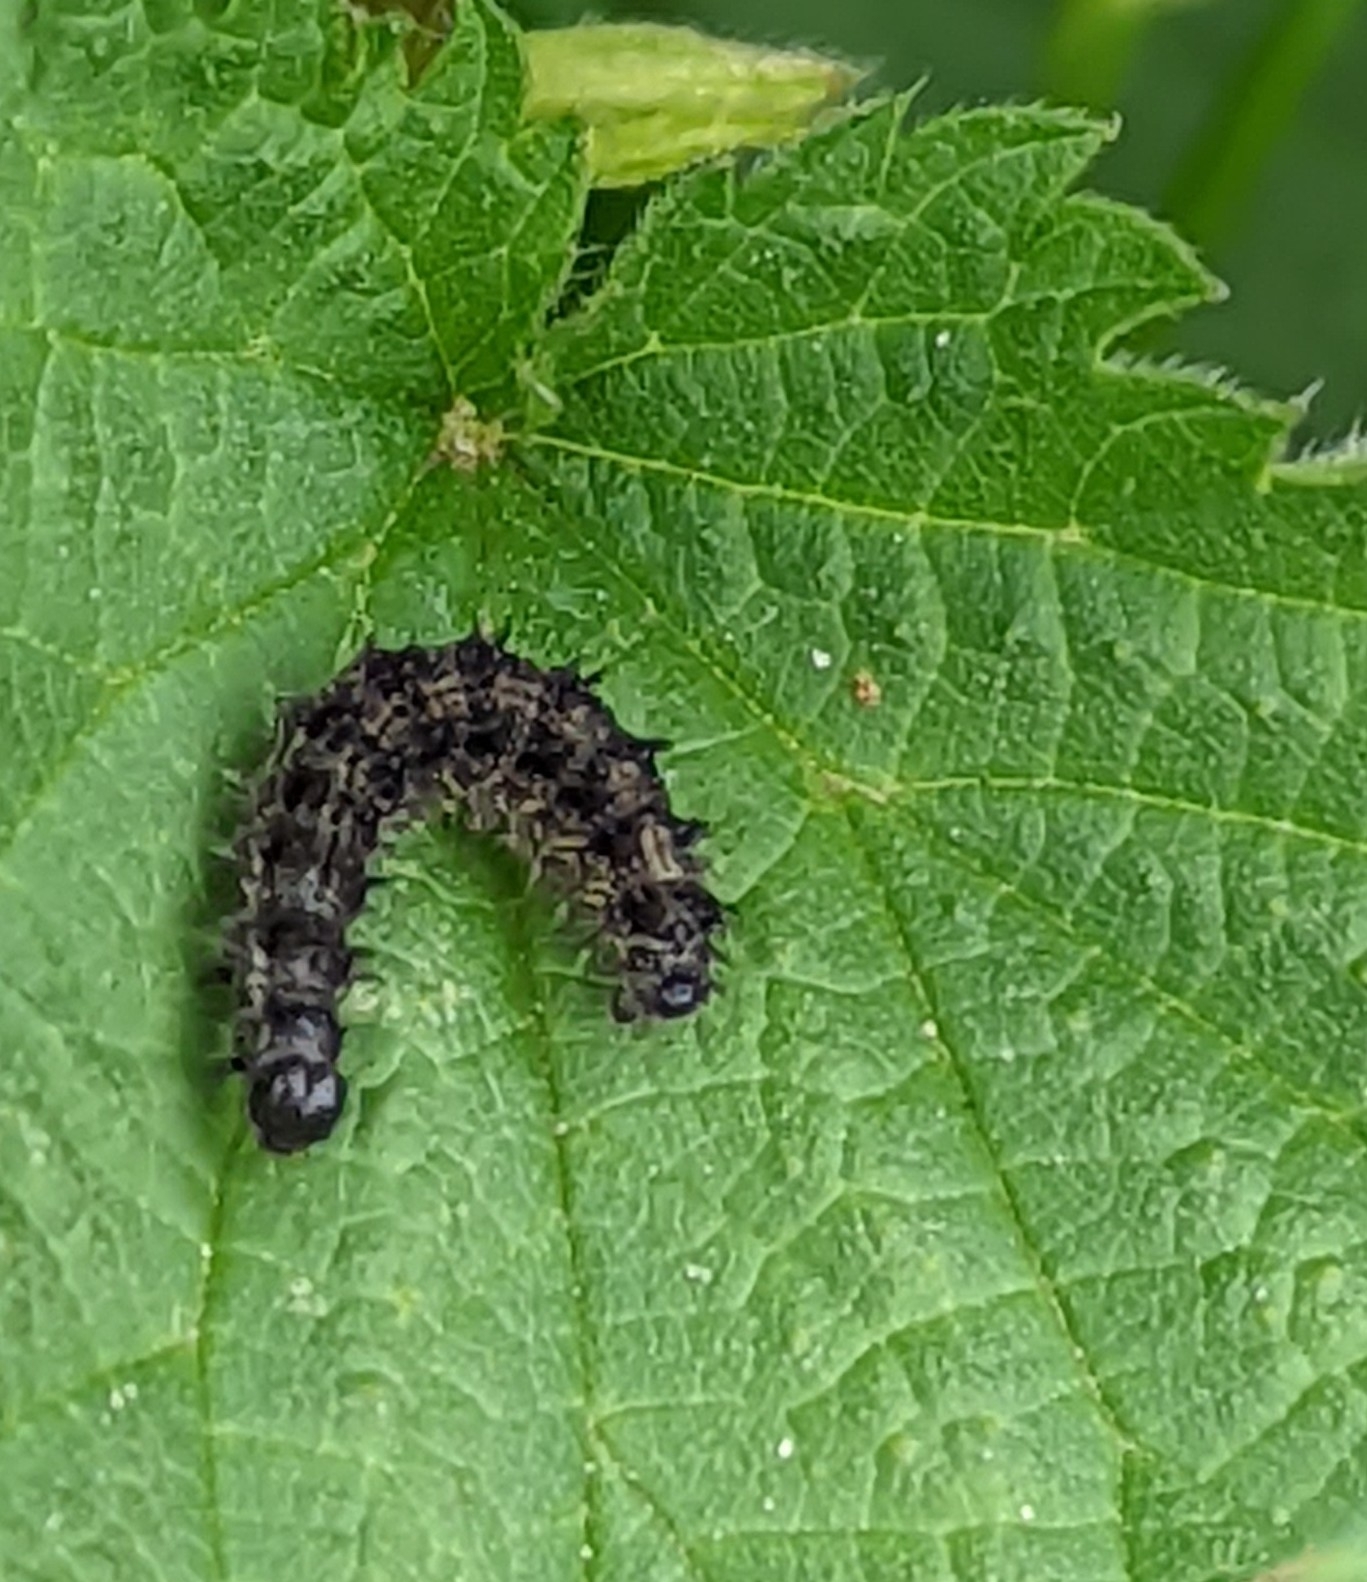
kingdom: Animalia
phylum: Arthropoda
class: Insecta
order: Lepidoptera
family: Nymphalidae
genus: Aglais
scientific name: Aglais urticae
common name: Small tortoiseshell
